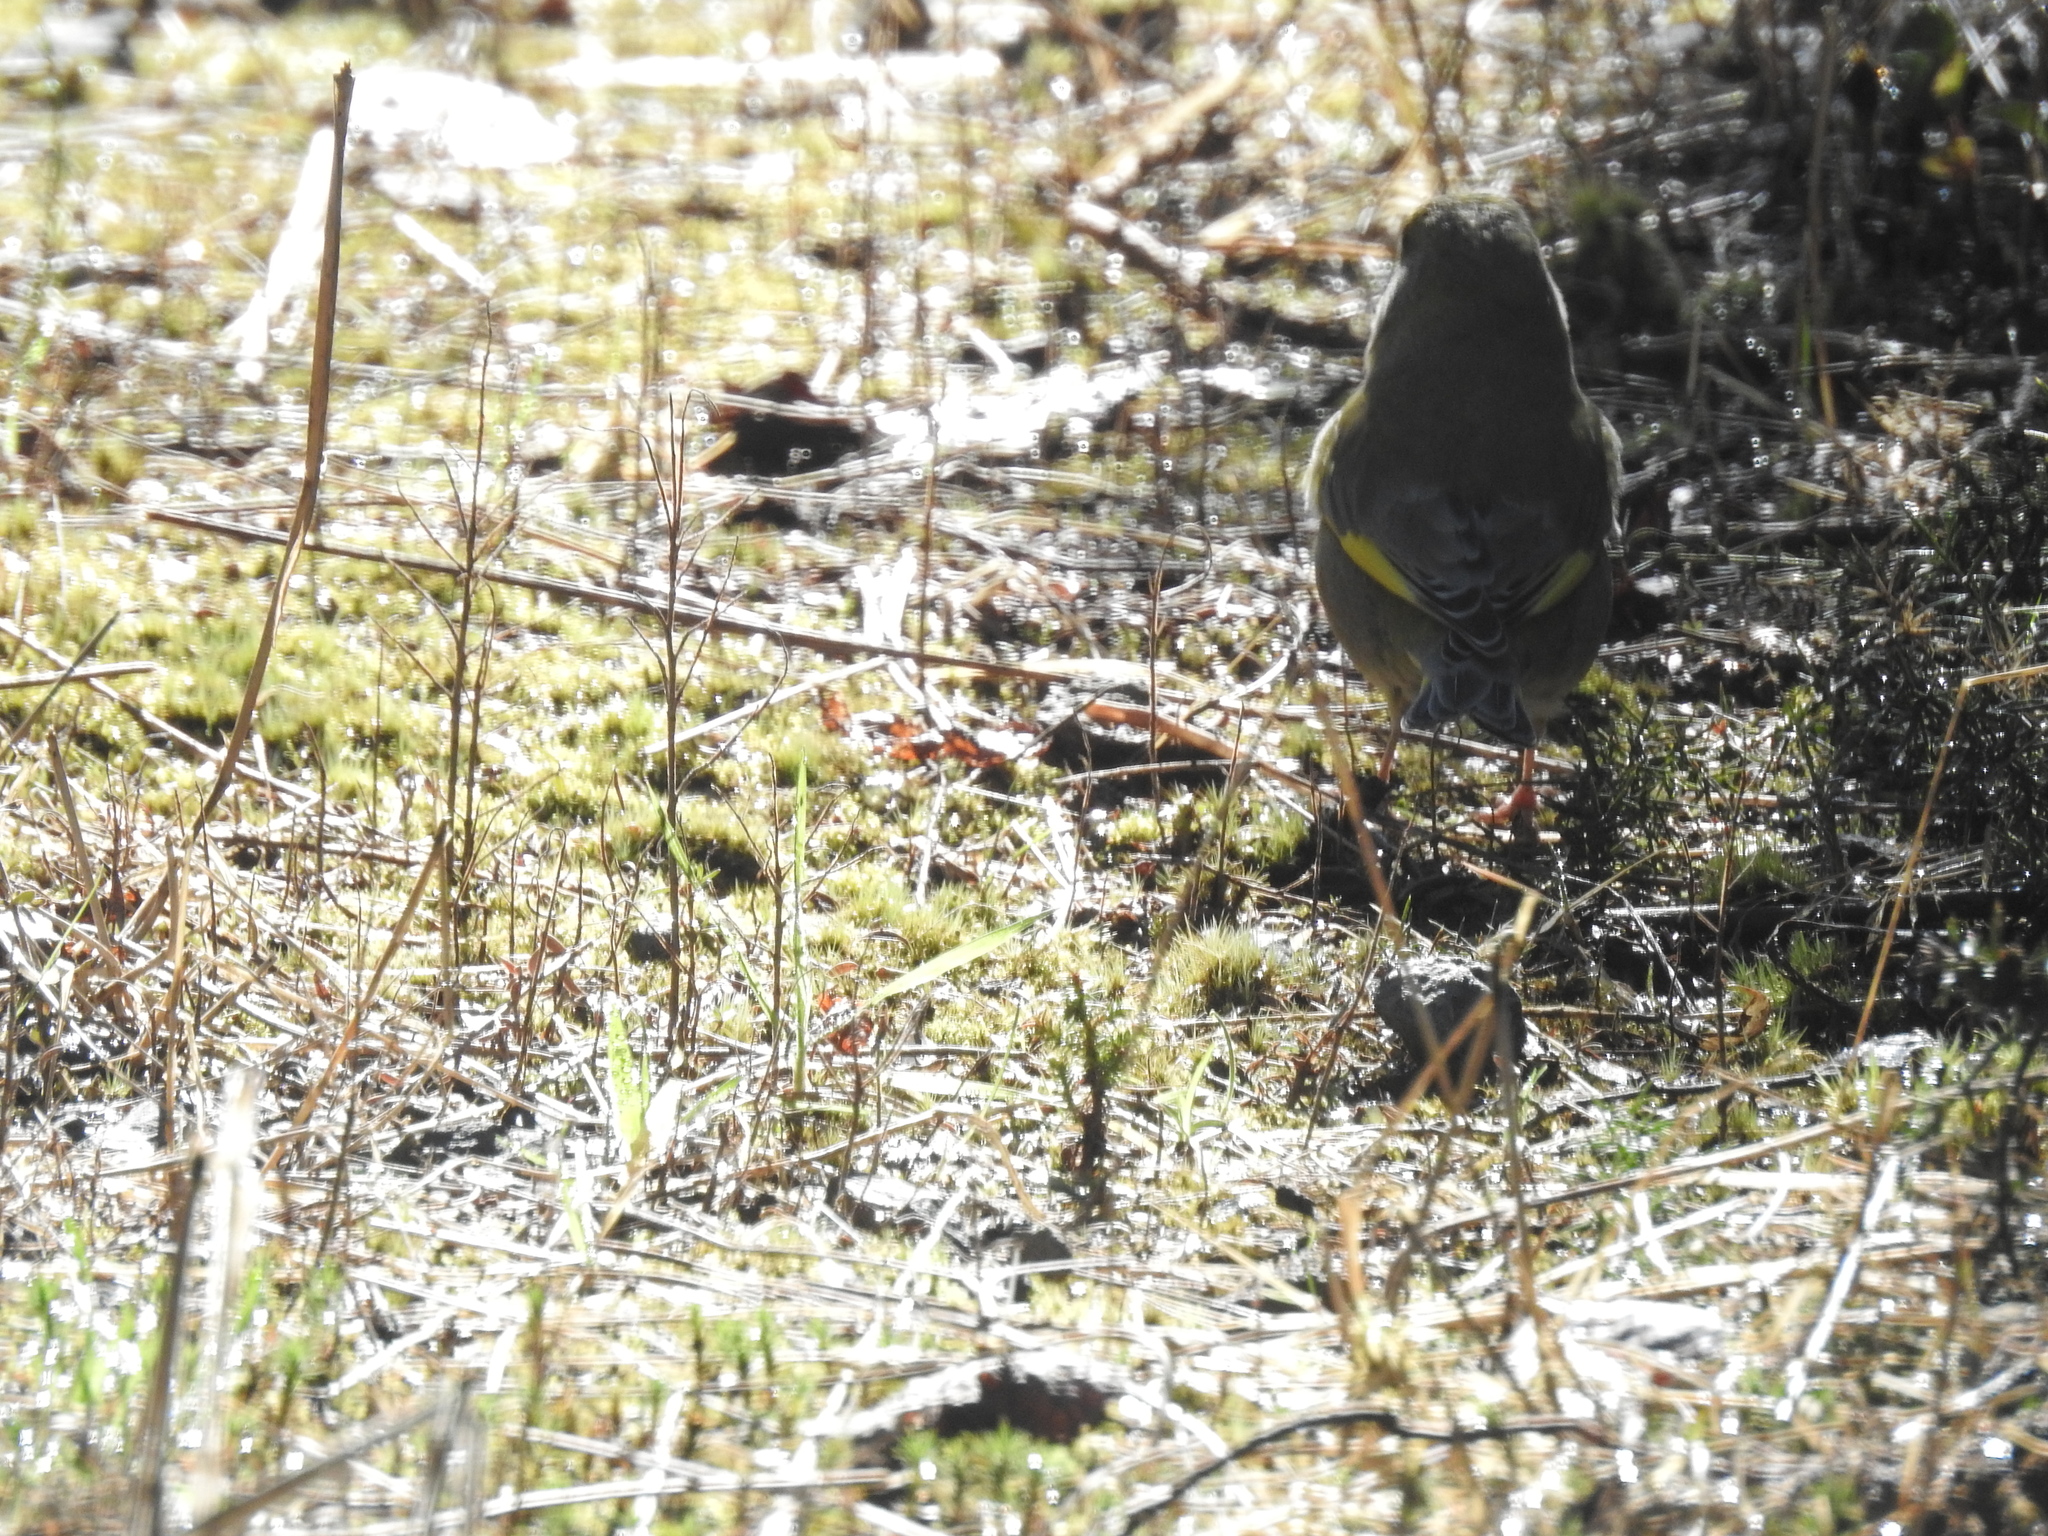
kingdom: Plantae
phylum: Tracheophyta
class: Liliopsida
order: Poales
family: Poaceae
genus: Chloris
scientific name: Chloris chloris
